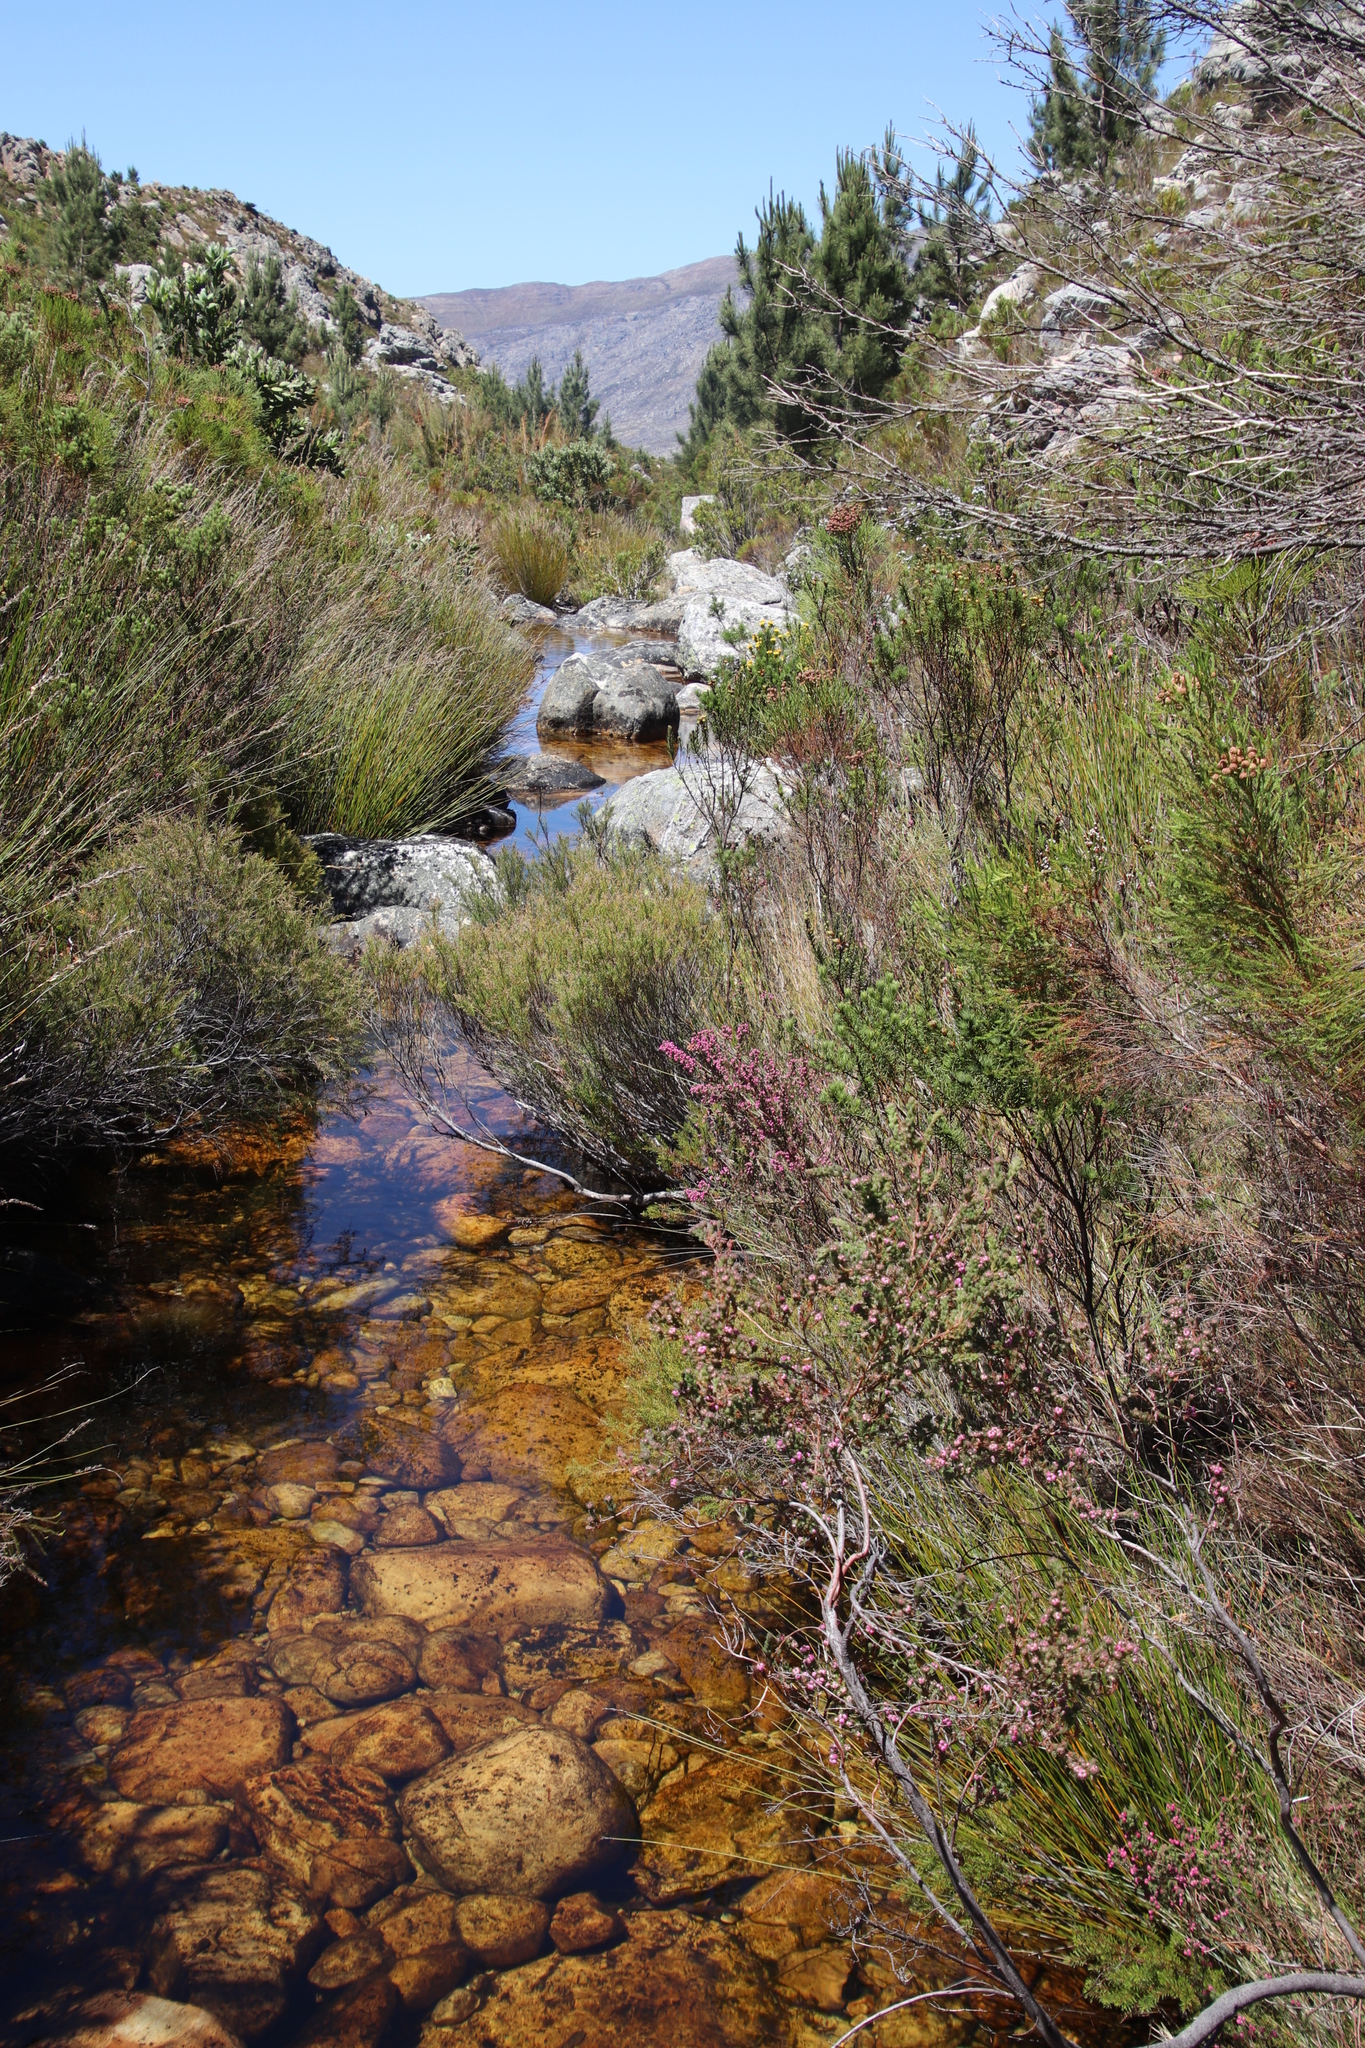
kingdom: Plantae
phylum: Tracheophyta
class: Magnoliopsida
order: Ericales
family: Ericaceae
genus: Erica
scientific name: Erica bergiana
